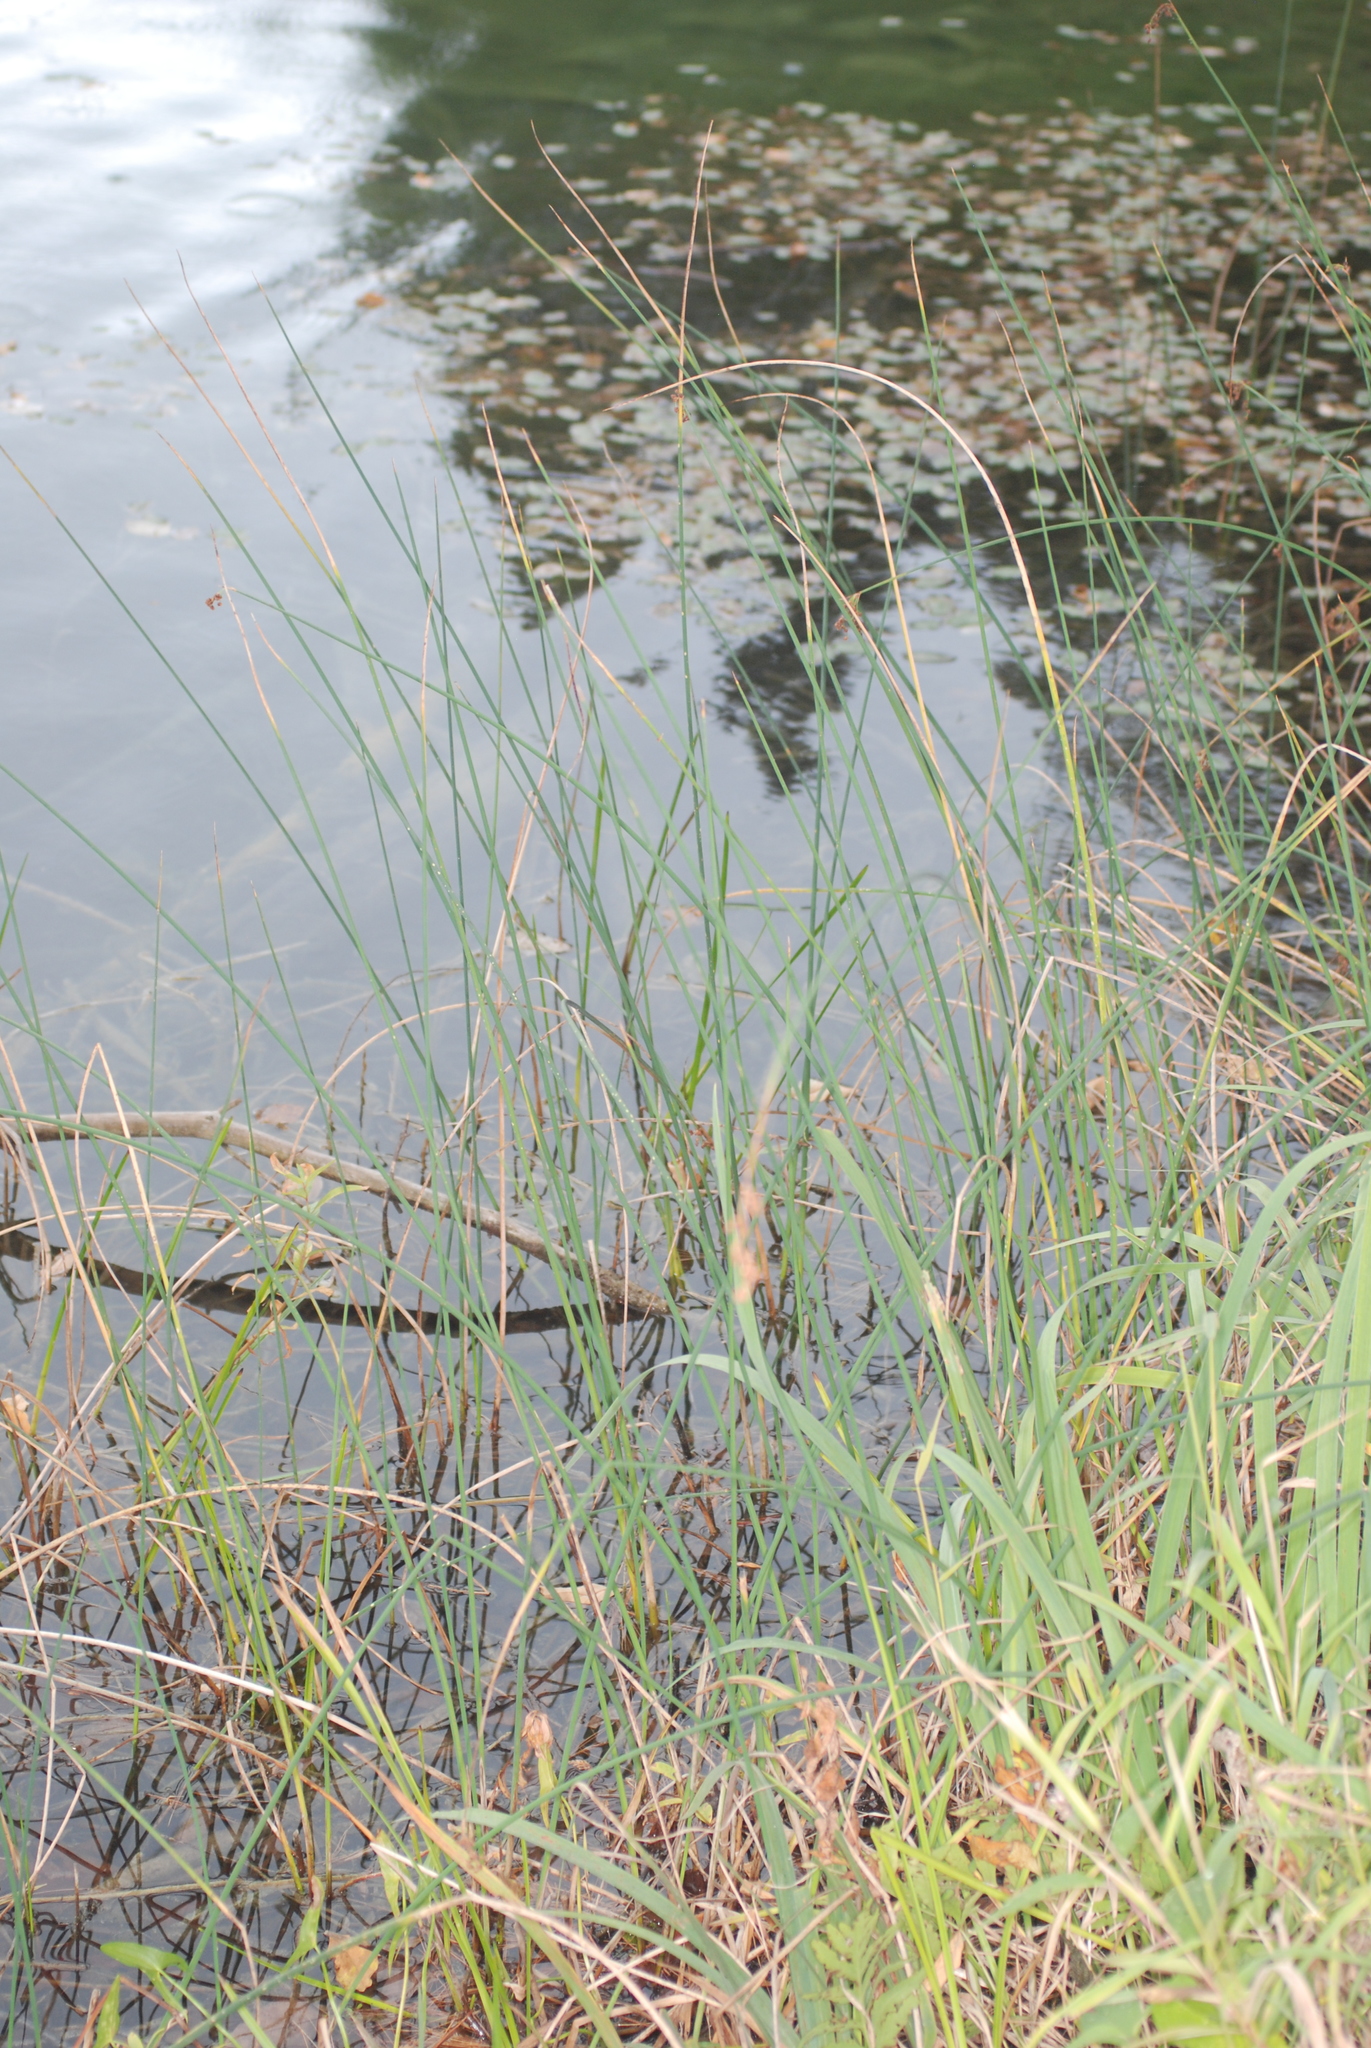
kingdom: Plantae
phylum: Tracheophyta
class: Liliopsida
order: Poales
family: Cyperaceae
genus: Schoenoplectus
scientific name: Schoenoplectus tabernaemontani
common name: Grey club-rush
